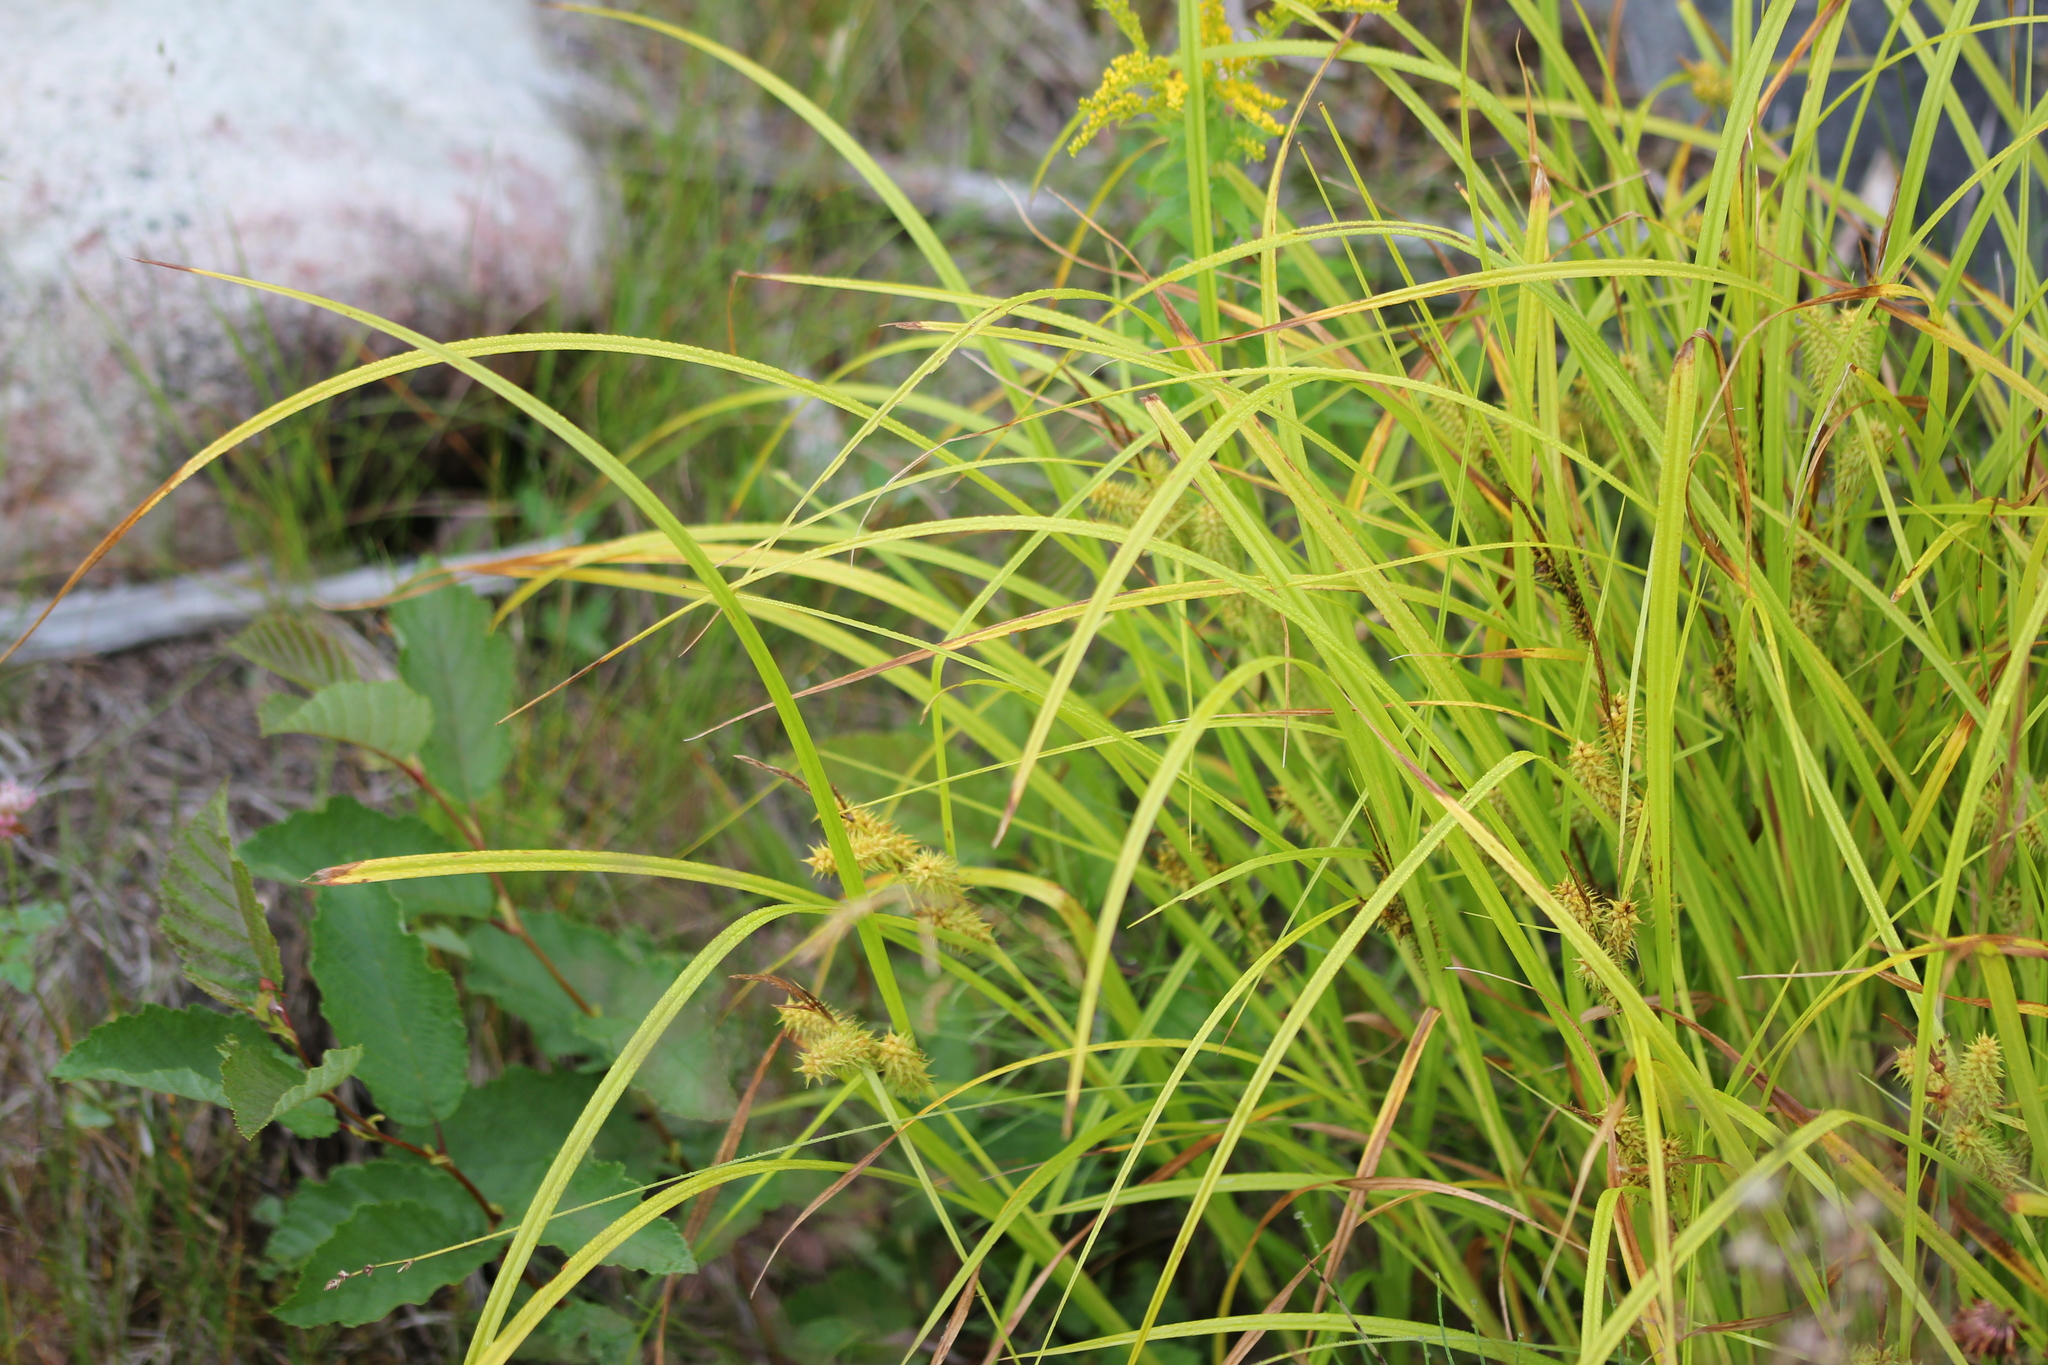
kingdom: Plantae
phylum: Tracheophyta
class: Liliopsida
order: Poales
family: Cyperaceae
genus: Carex
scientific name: Carex retrorsa
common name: Knot-sheath sedge
